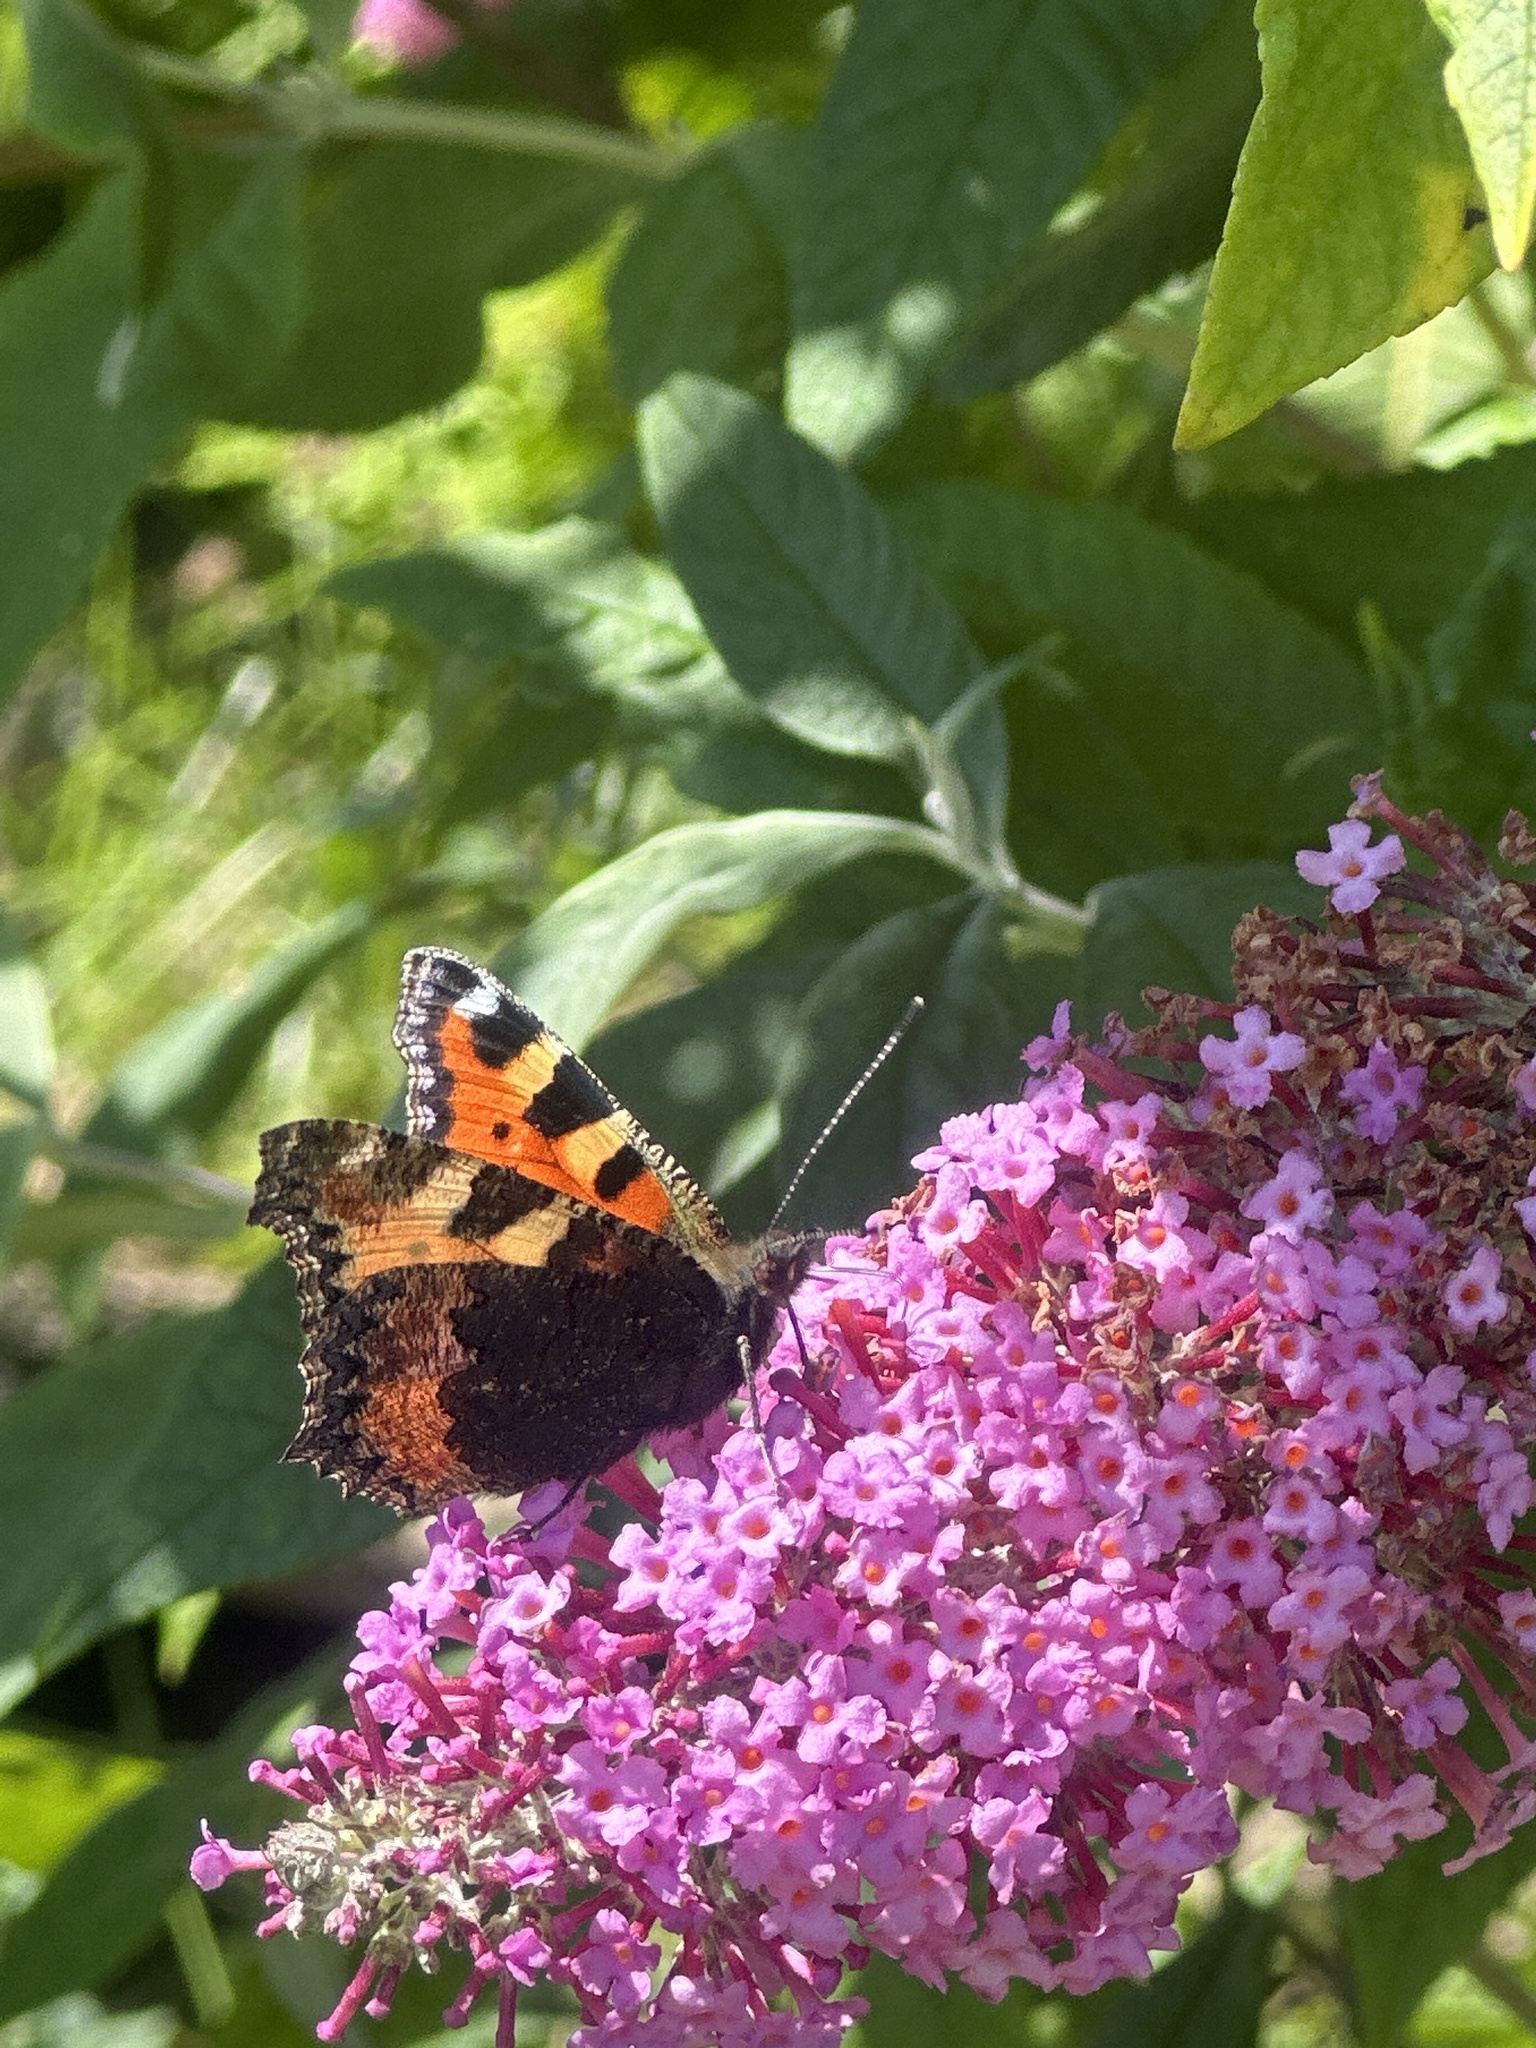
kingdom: Animalia
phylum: Arthropoda
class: Insecta
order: Lepidoptera
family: Nymphalidae
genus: Aglais
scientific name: Aglais urticae
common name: Small tortoiseshell
